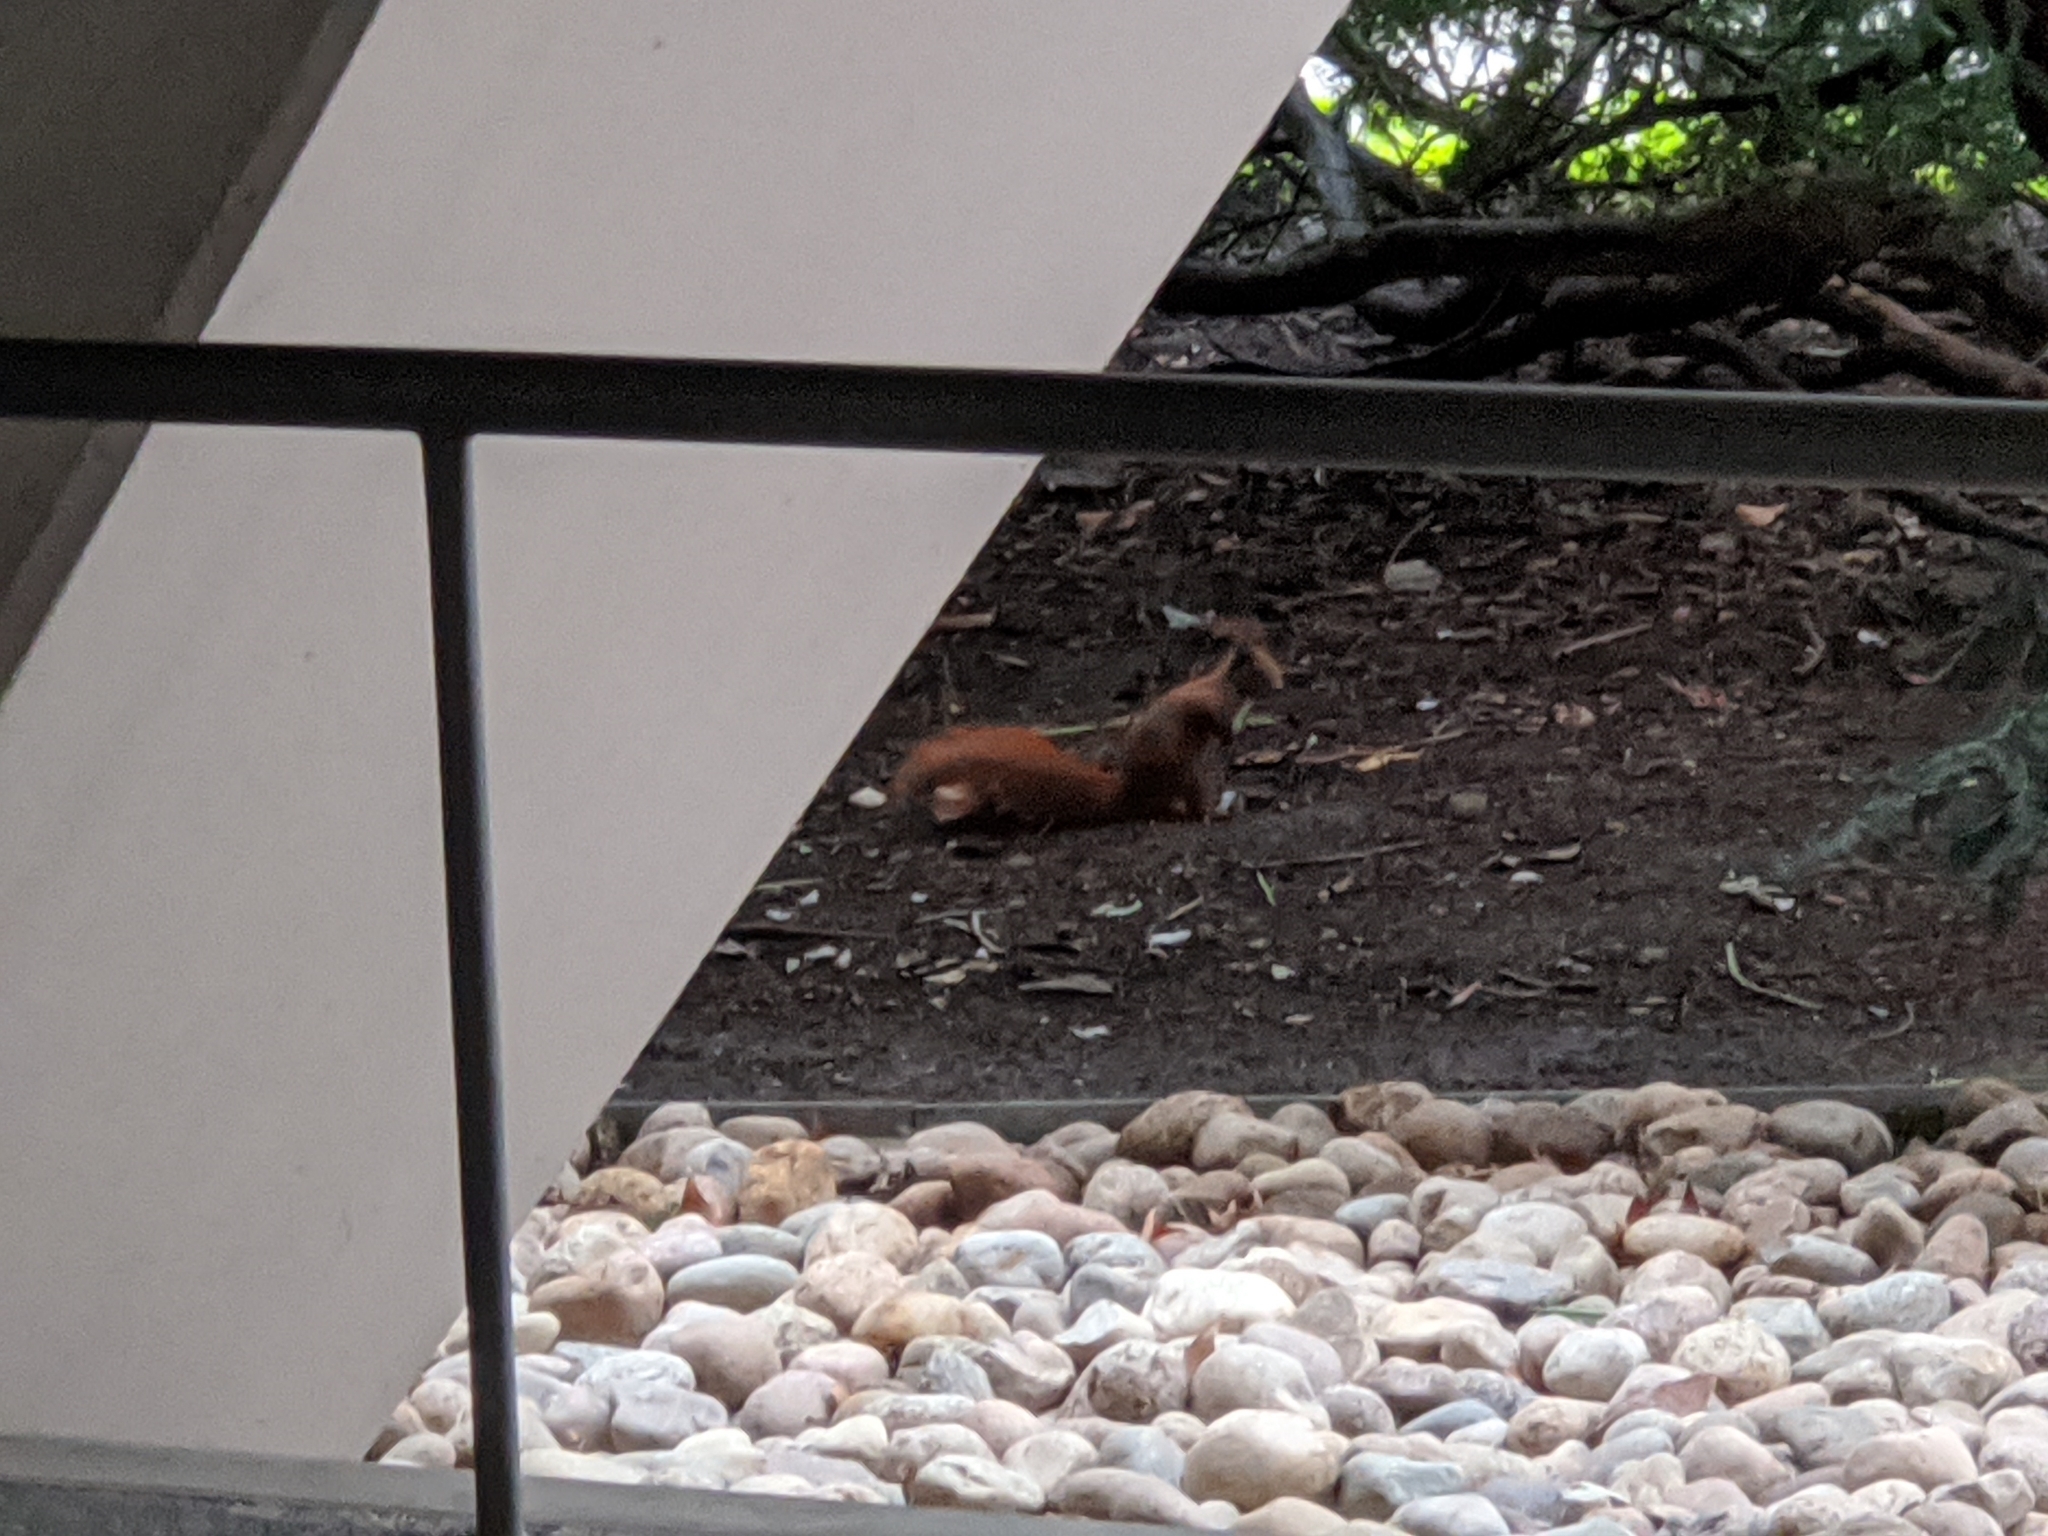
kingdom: Animalia
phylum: Chordata
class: Mammalia
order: Rodentia
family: Sciuridae
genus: Sciurus
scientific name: Sciurus vulgaris
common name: Eurasian red squirrel
